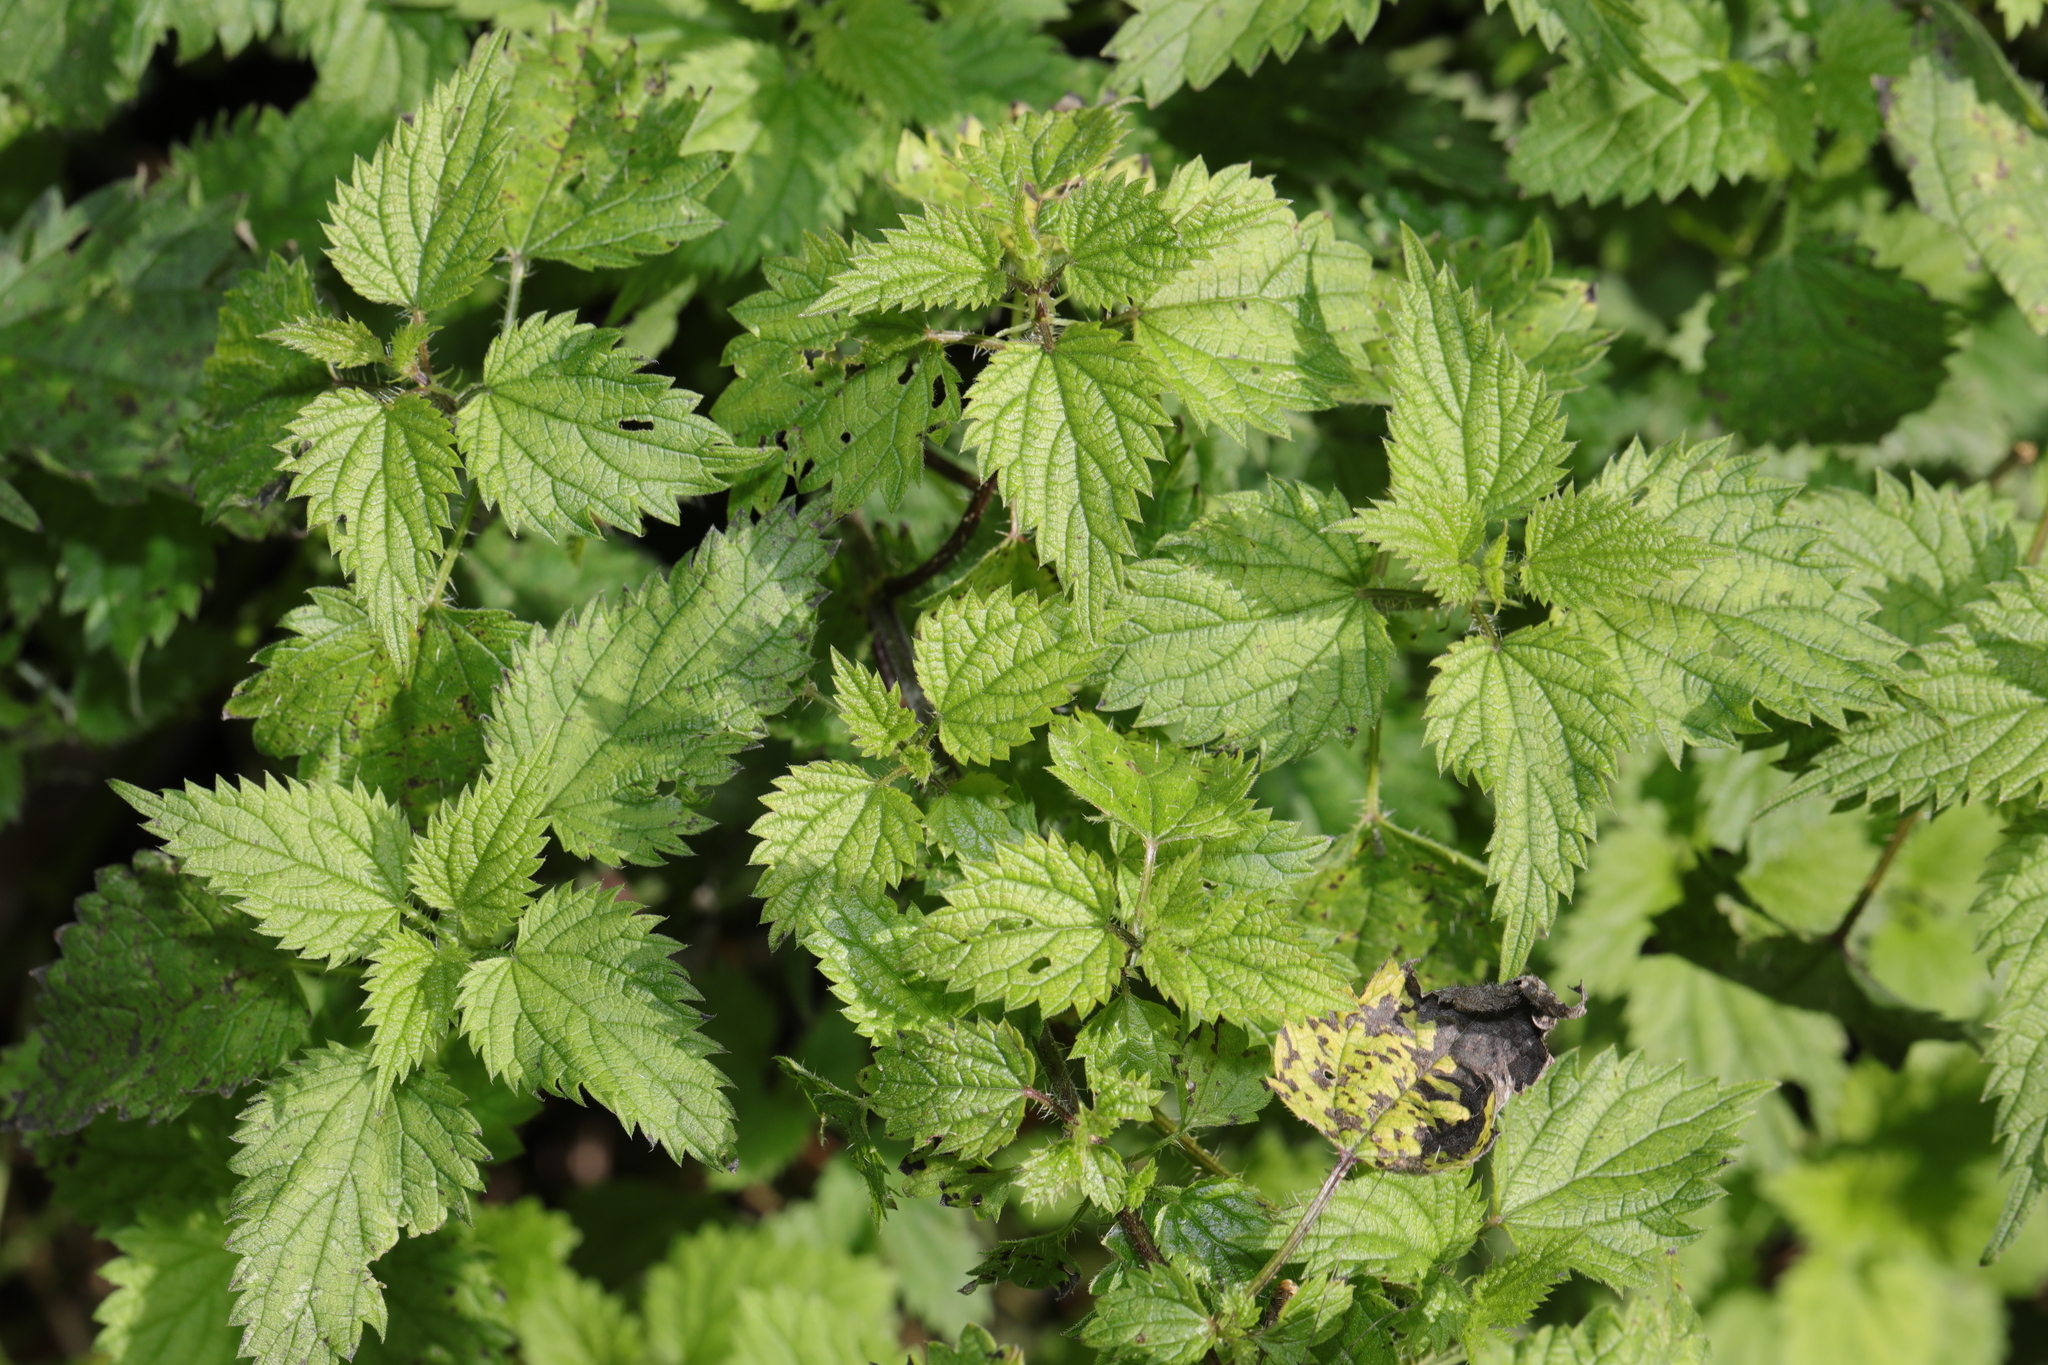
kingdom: Plantae
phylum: Tracheophyta
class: Magnoliopsida
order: Rosales
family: Urticaceae
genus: Urtica
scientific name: Urtica dioica
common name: Common nettle
